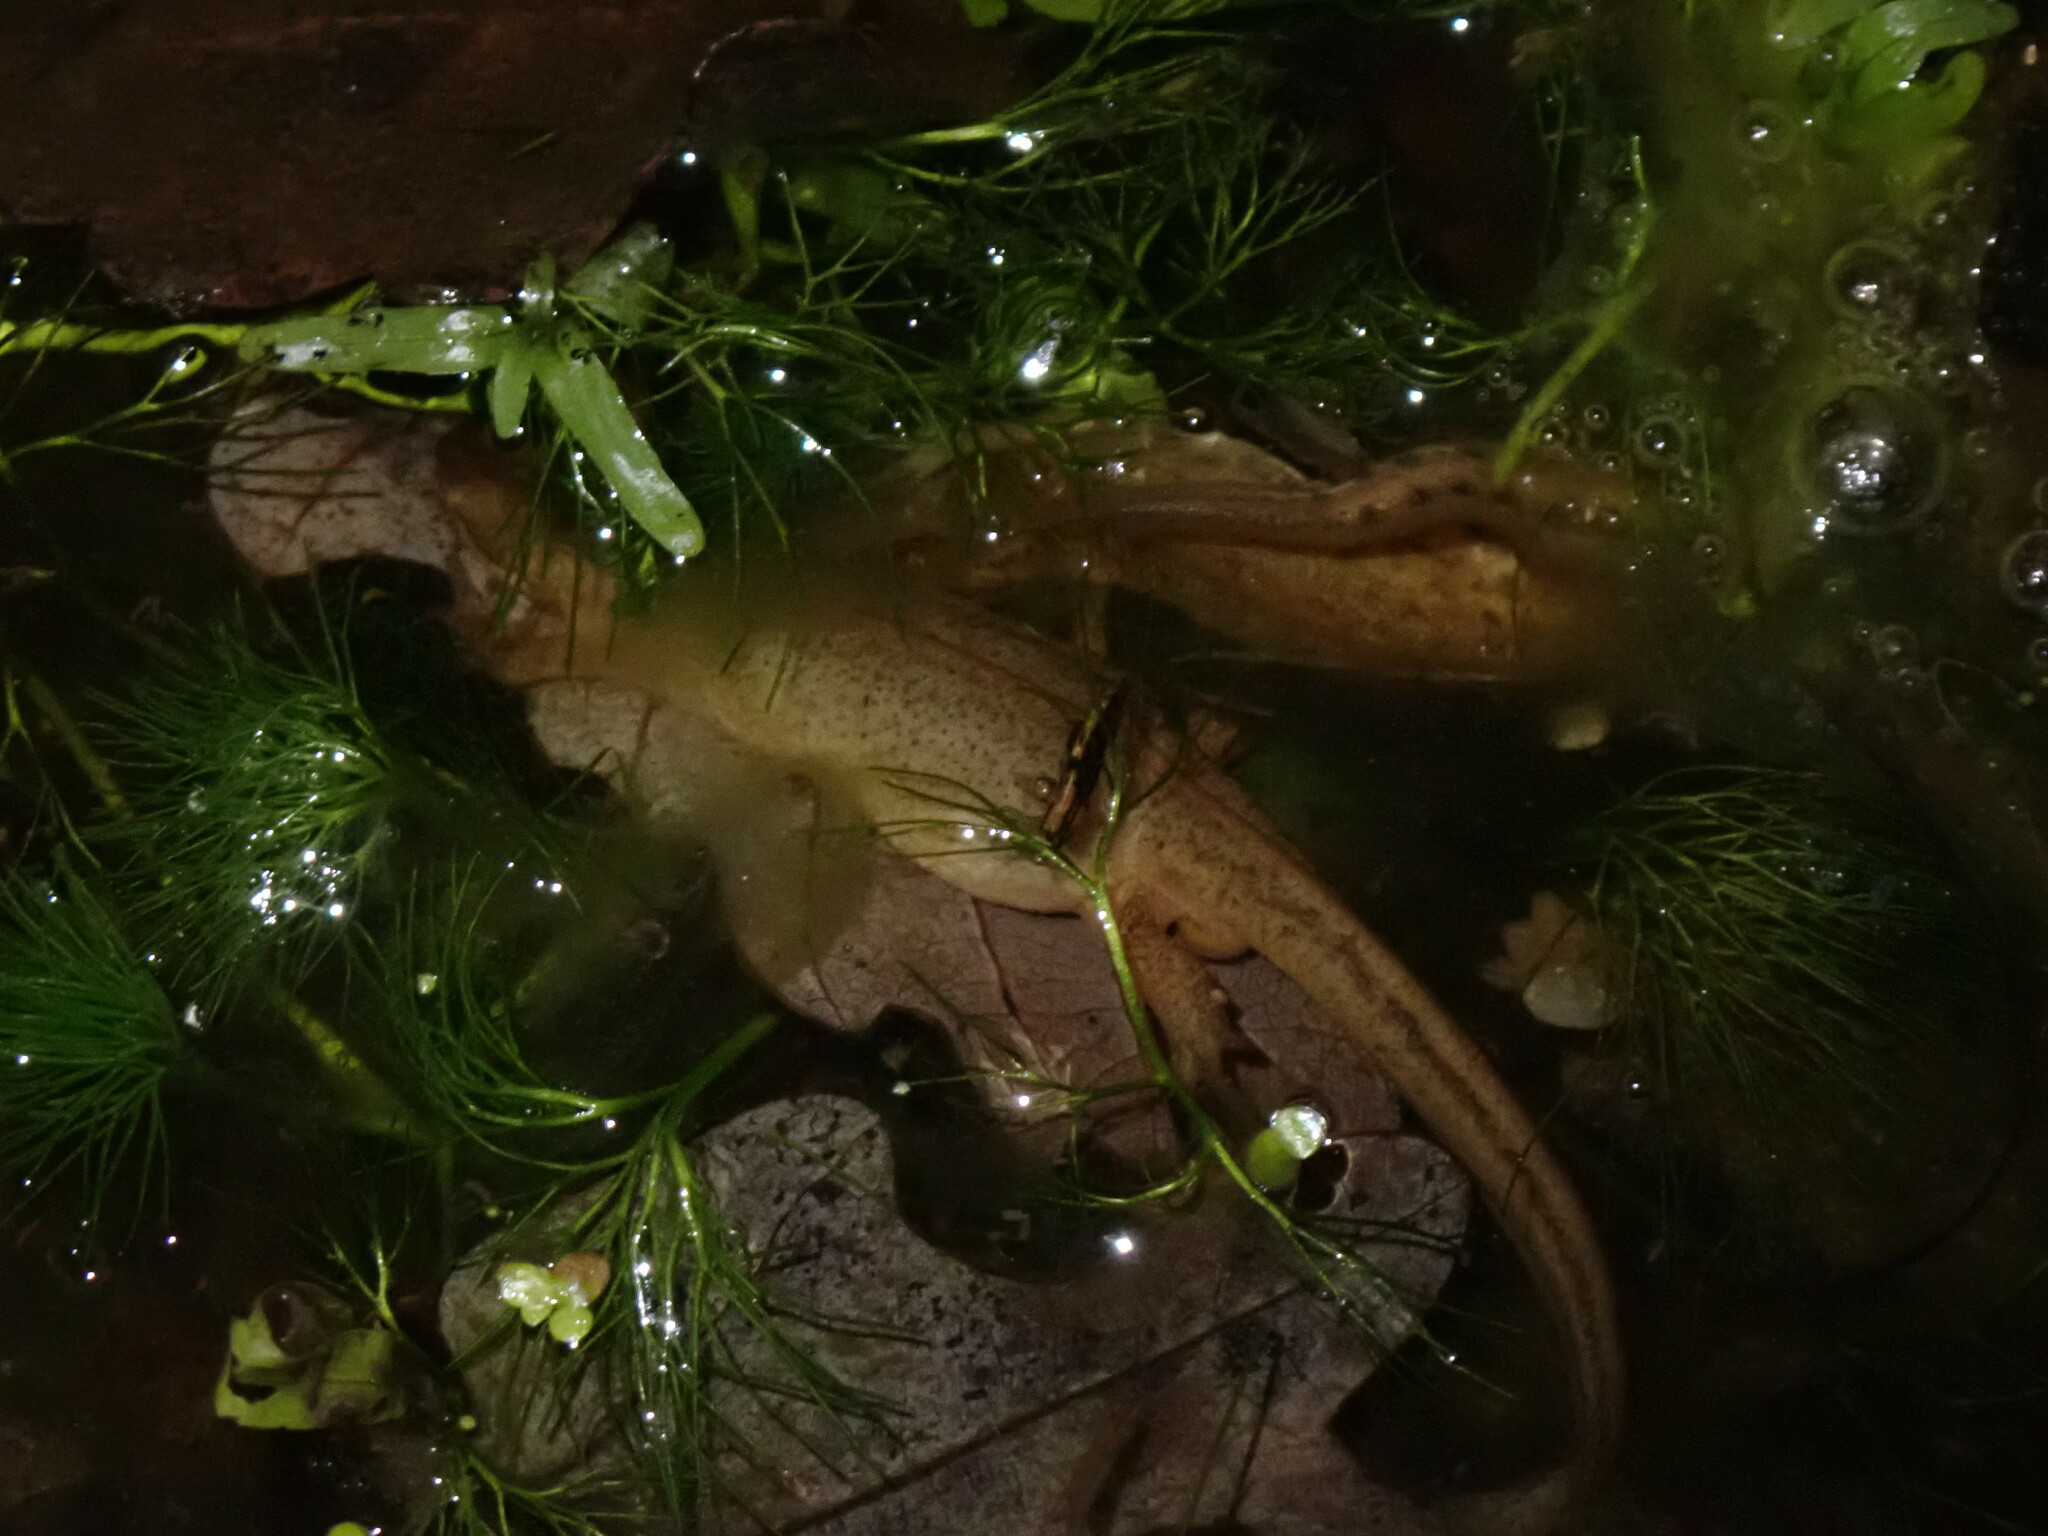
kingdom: Animalia
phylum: Chordata
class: Amphibia
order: Caudata
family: Salamandridae
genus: Lissotriton
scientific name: Lissotriton helveticus
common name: Palmate newt
